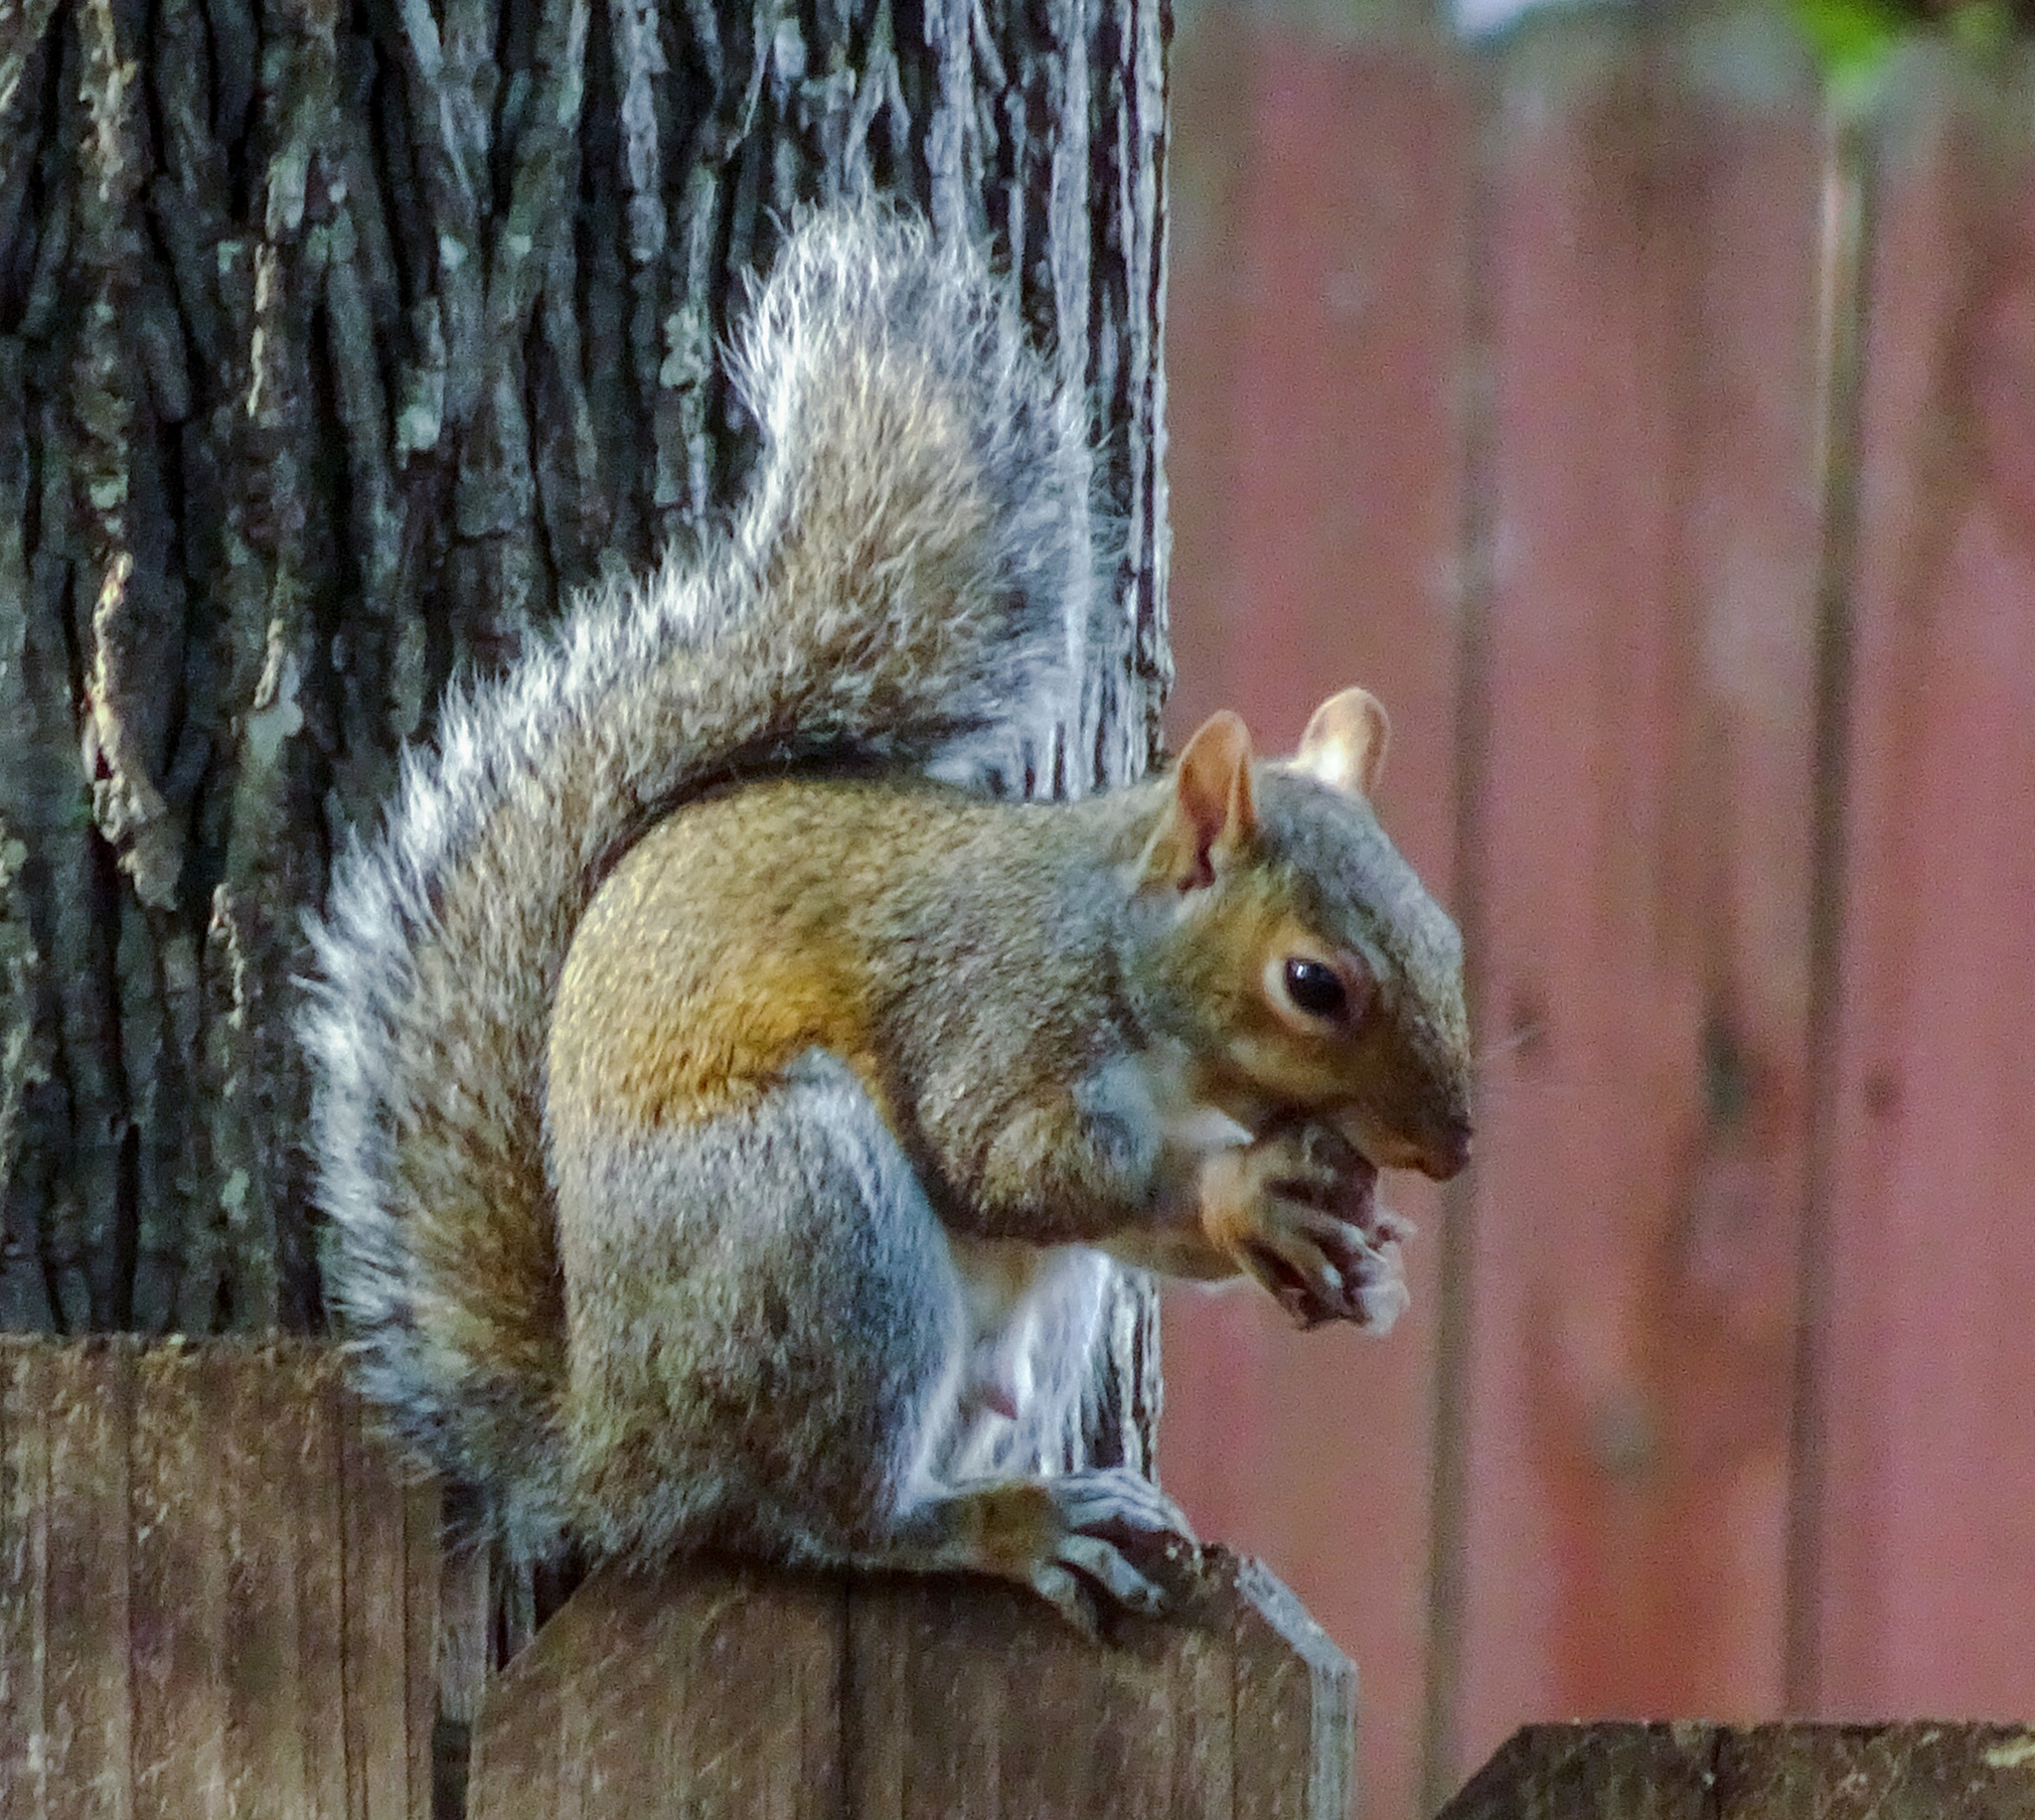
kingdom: Animalia
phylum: Chordata
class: Mammalia
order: Rodentia
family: Sciuridae
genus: Sciurus
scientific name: Sciurus carolinensis
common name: Eastern gray squirrel
